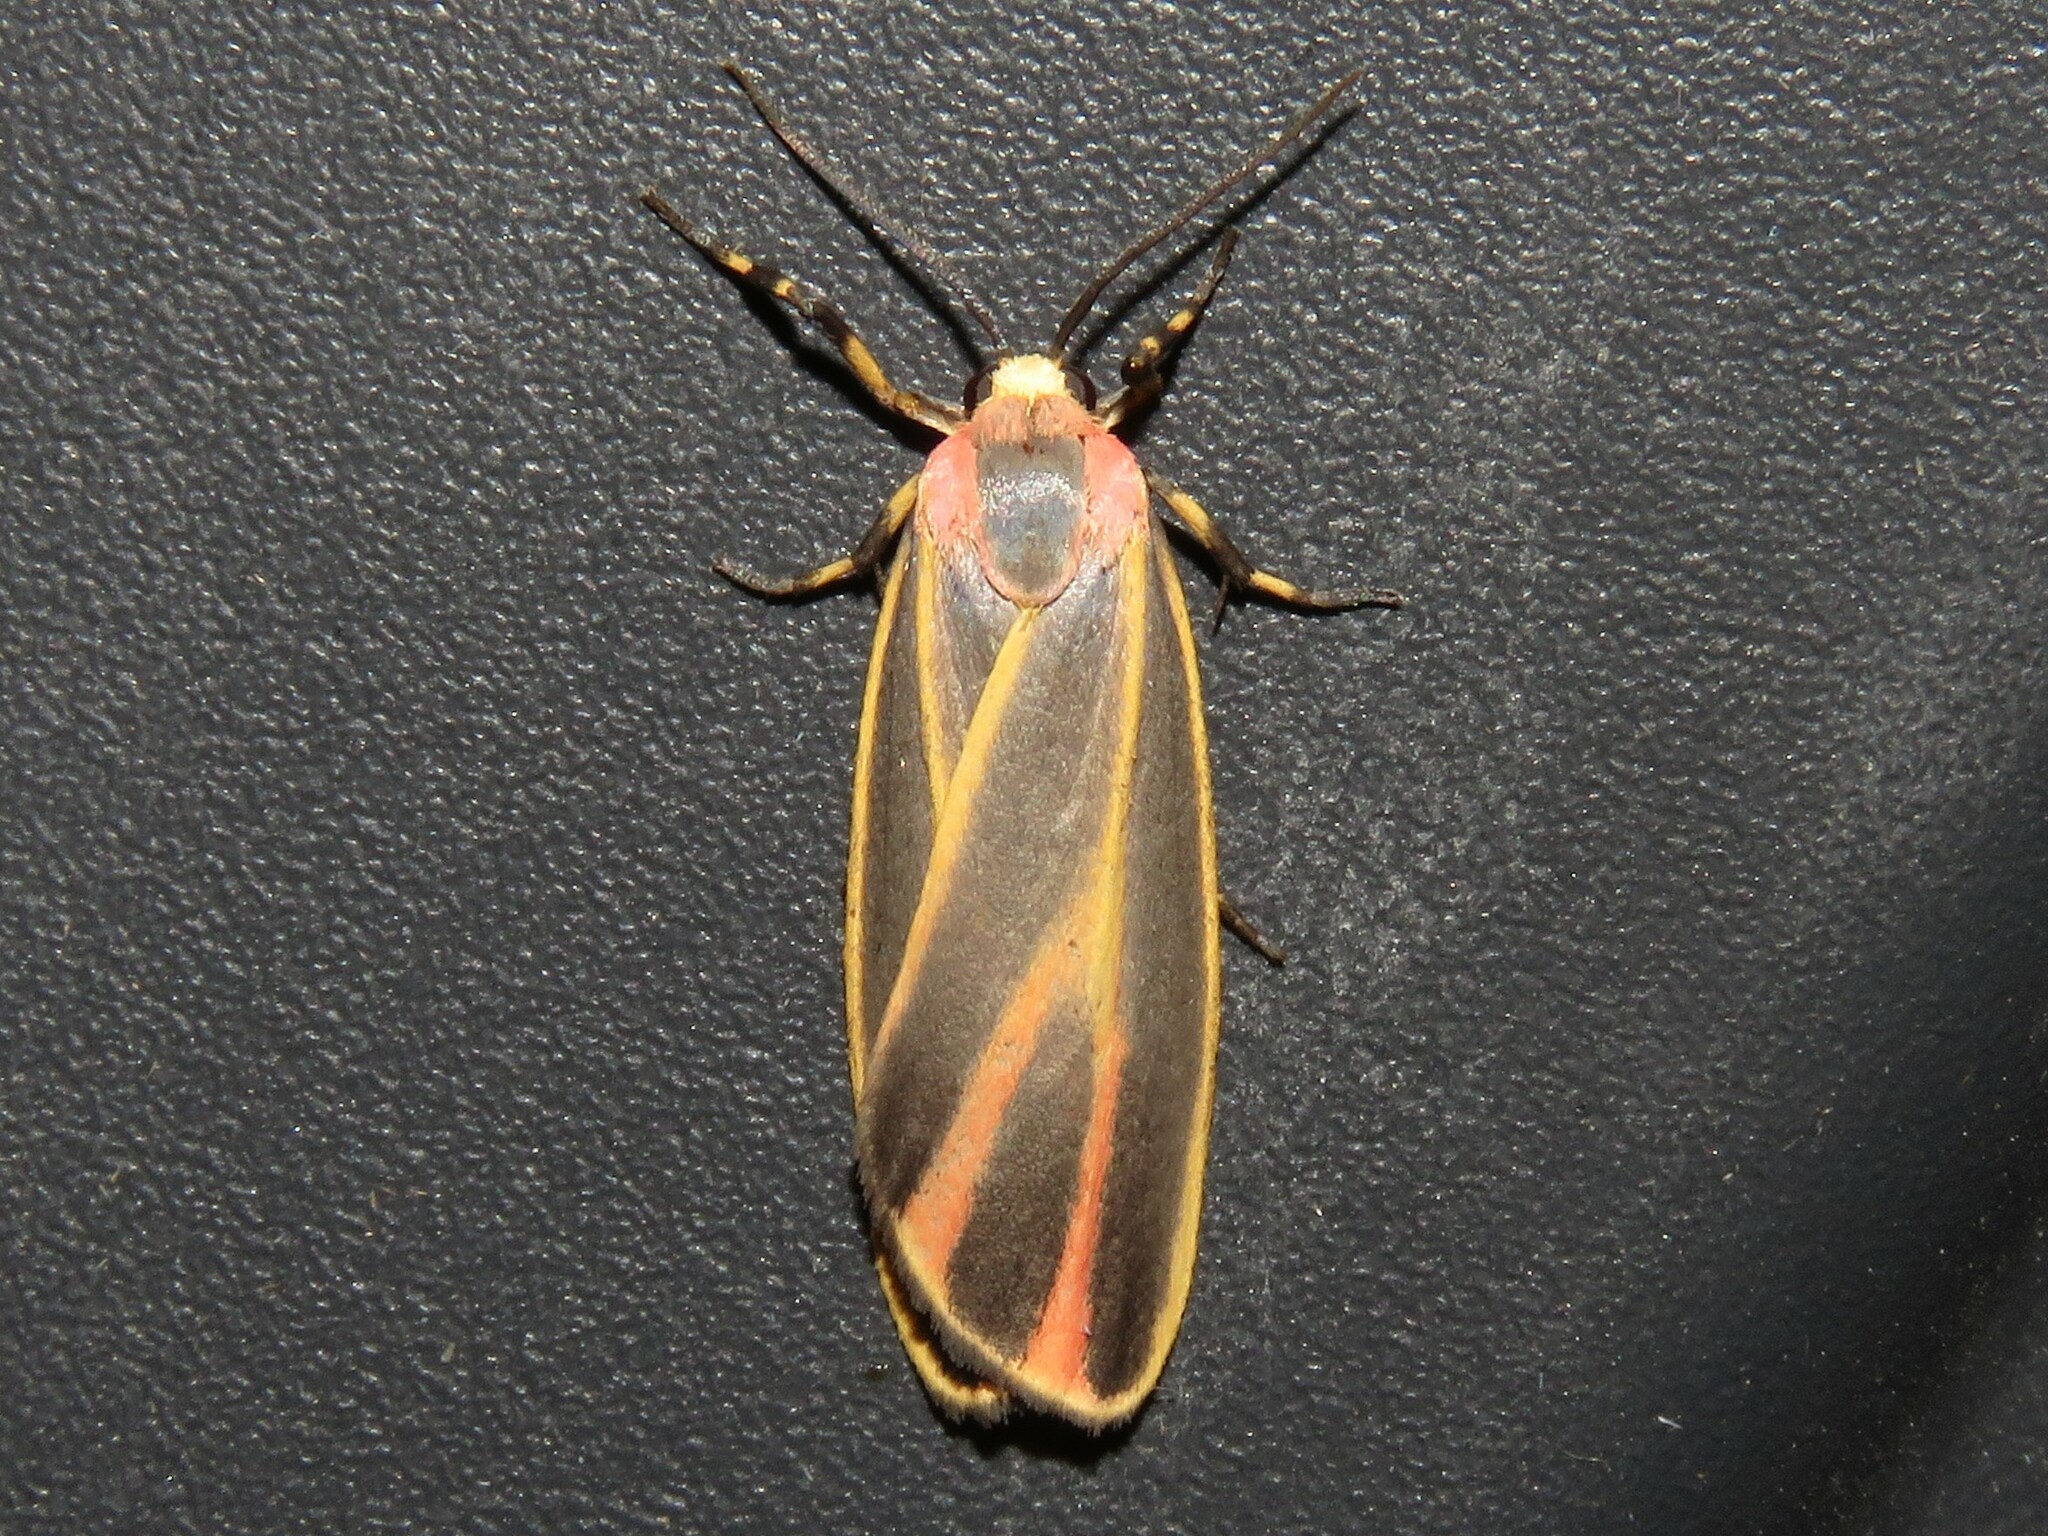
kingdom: Animalia
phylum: Arthropoda
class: Insecta
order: Lepidoptera
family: Erebidae
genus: Hypoprepia
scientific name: Hypoprepia fucosa
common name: Painted lichen moth
